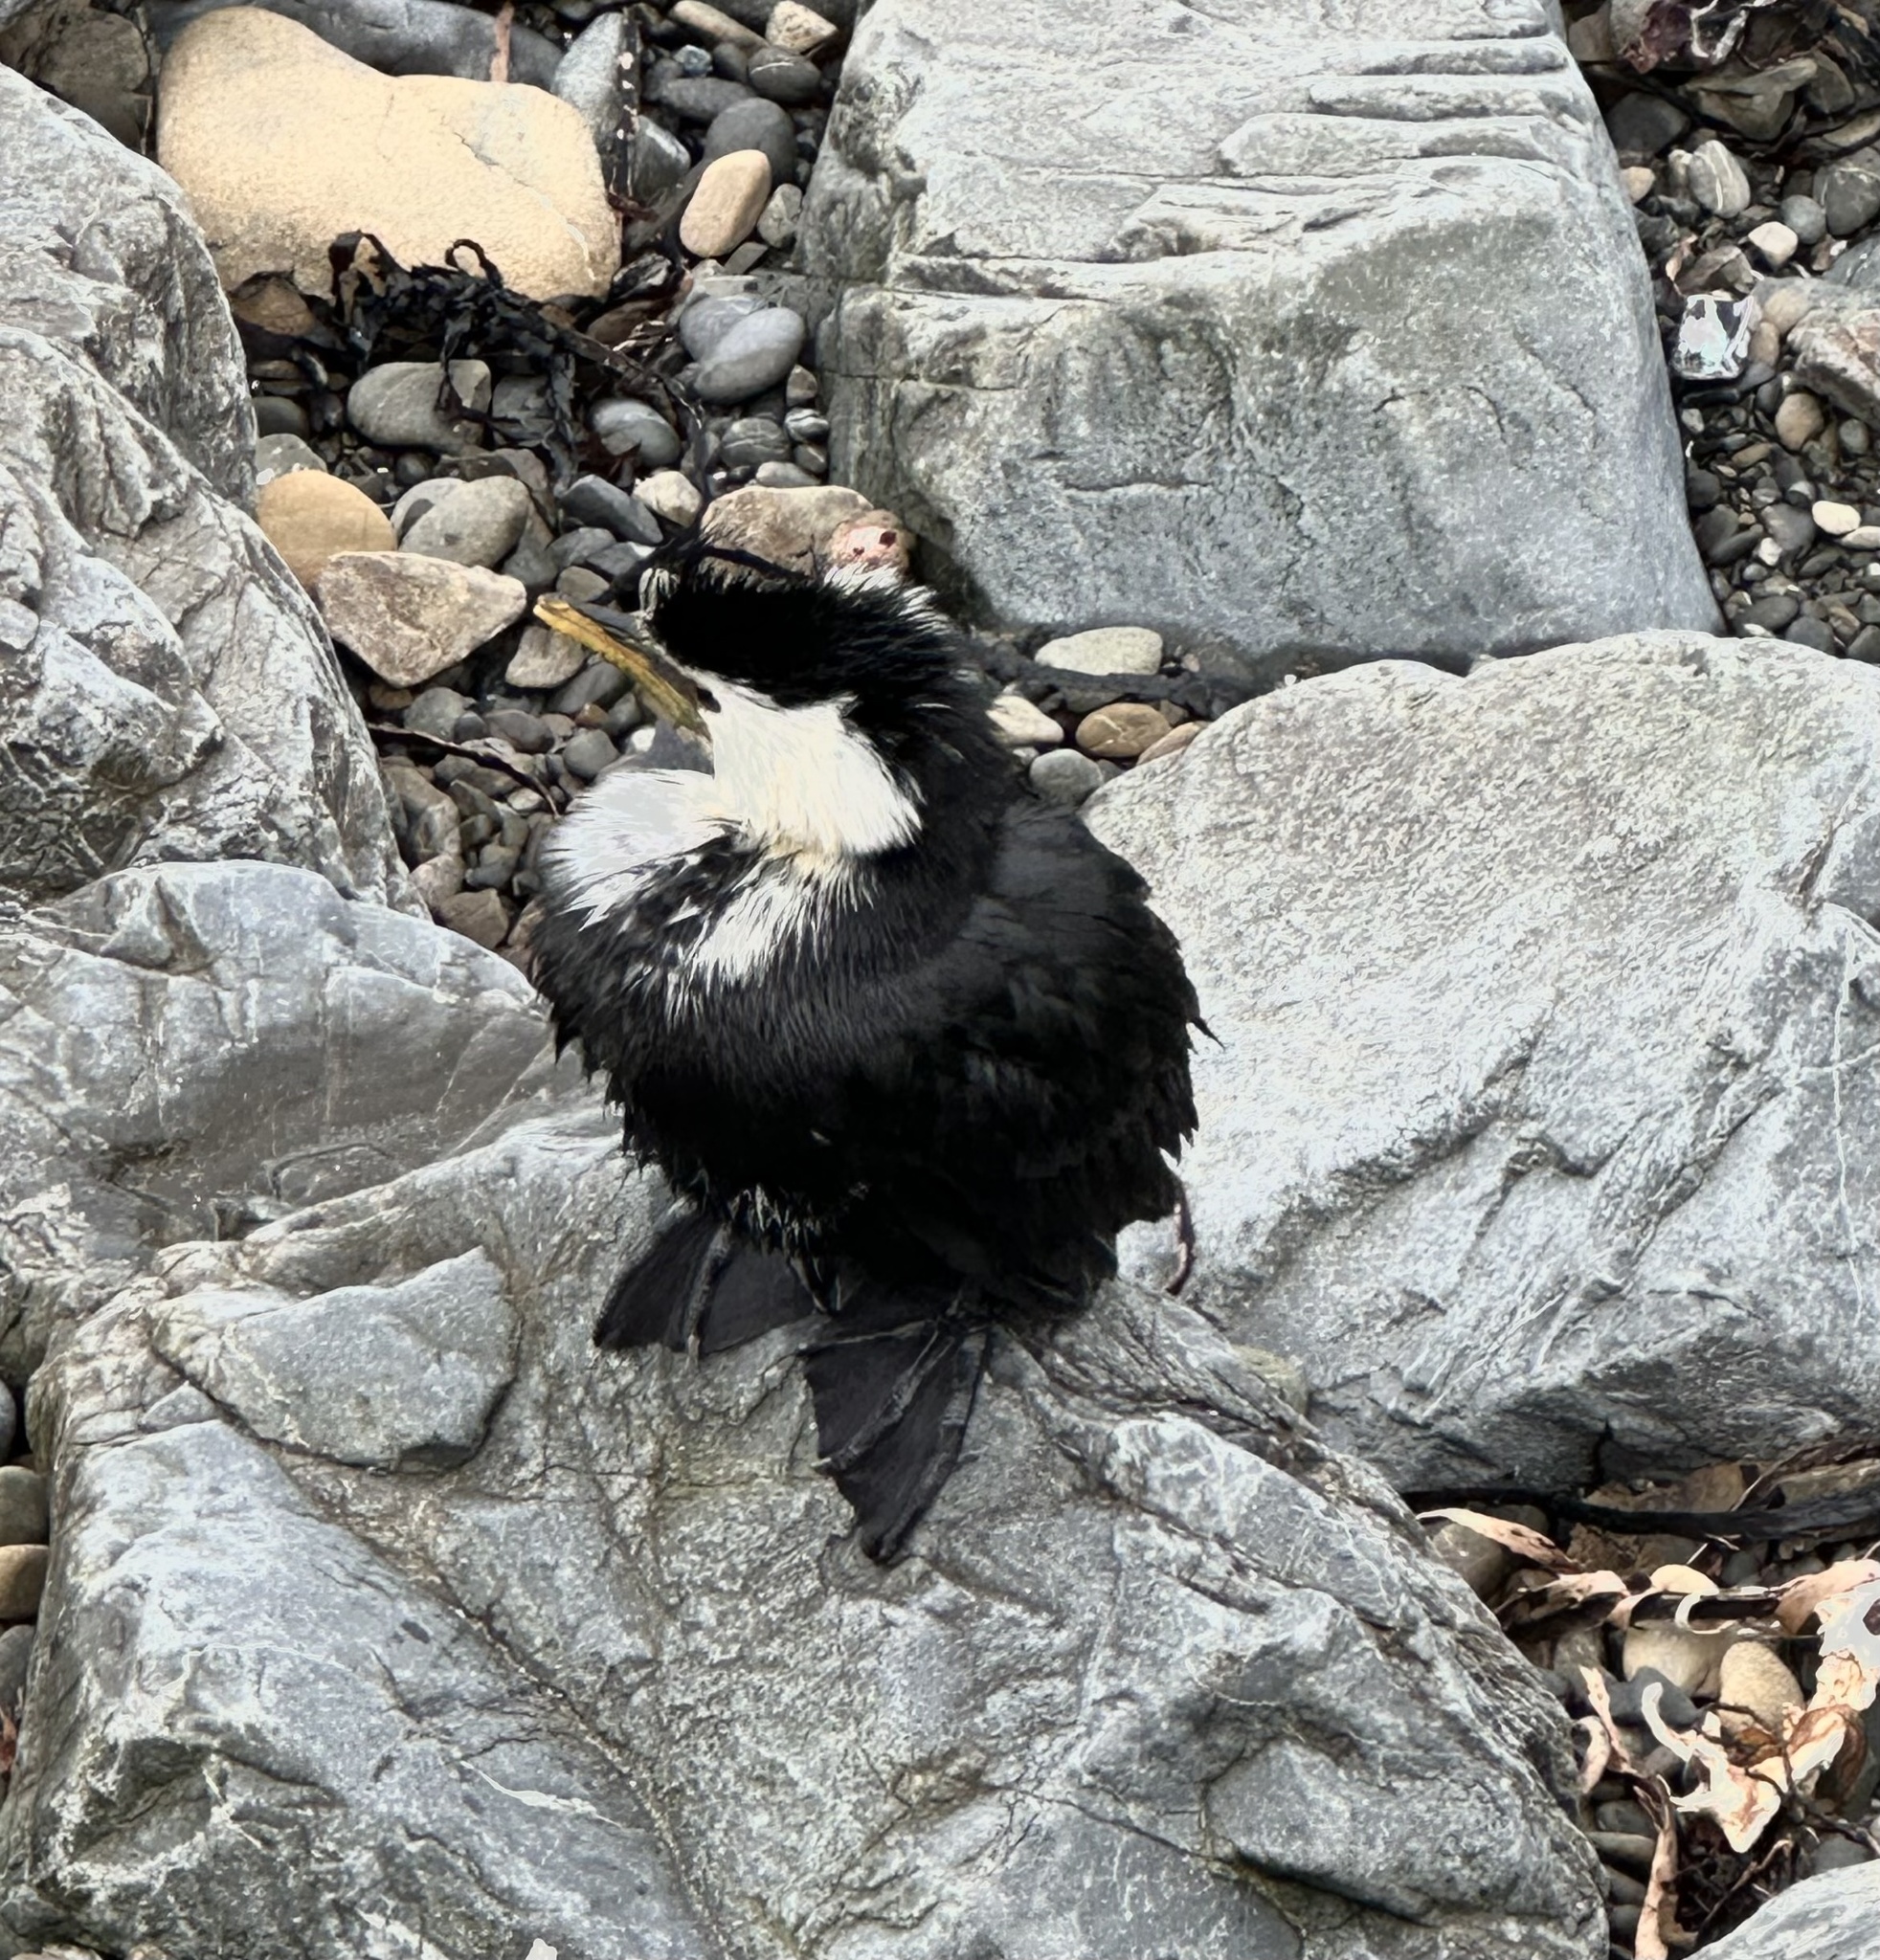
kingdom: Animalia
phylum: Chordata
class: Aves
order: Suliformes
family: Phalacrocoracidae
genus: Microcarbo
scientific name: Microcarbo melanoleucos
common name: Little pied cormorant
